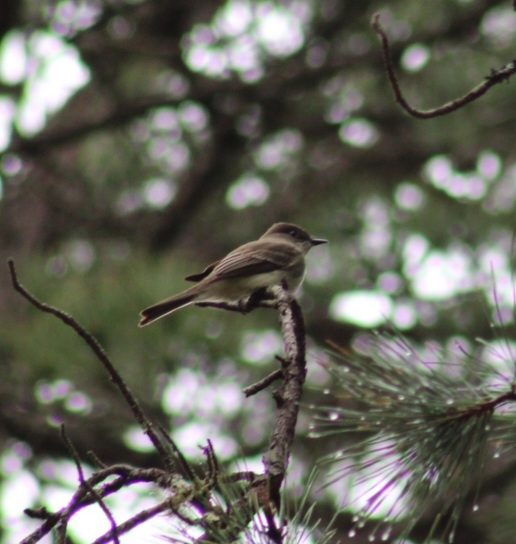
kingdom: Animalia
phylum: Chordata
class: Aves
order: Passeriformes
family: Tyrannidae
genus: Sayornis
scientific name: Sayornis phoebe
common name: Eastern phoebe
